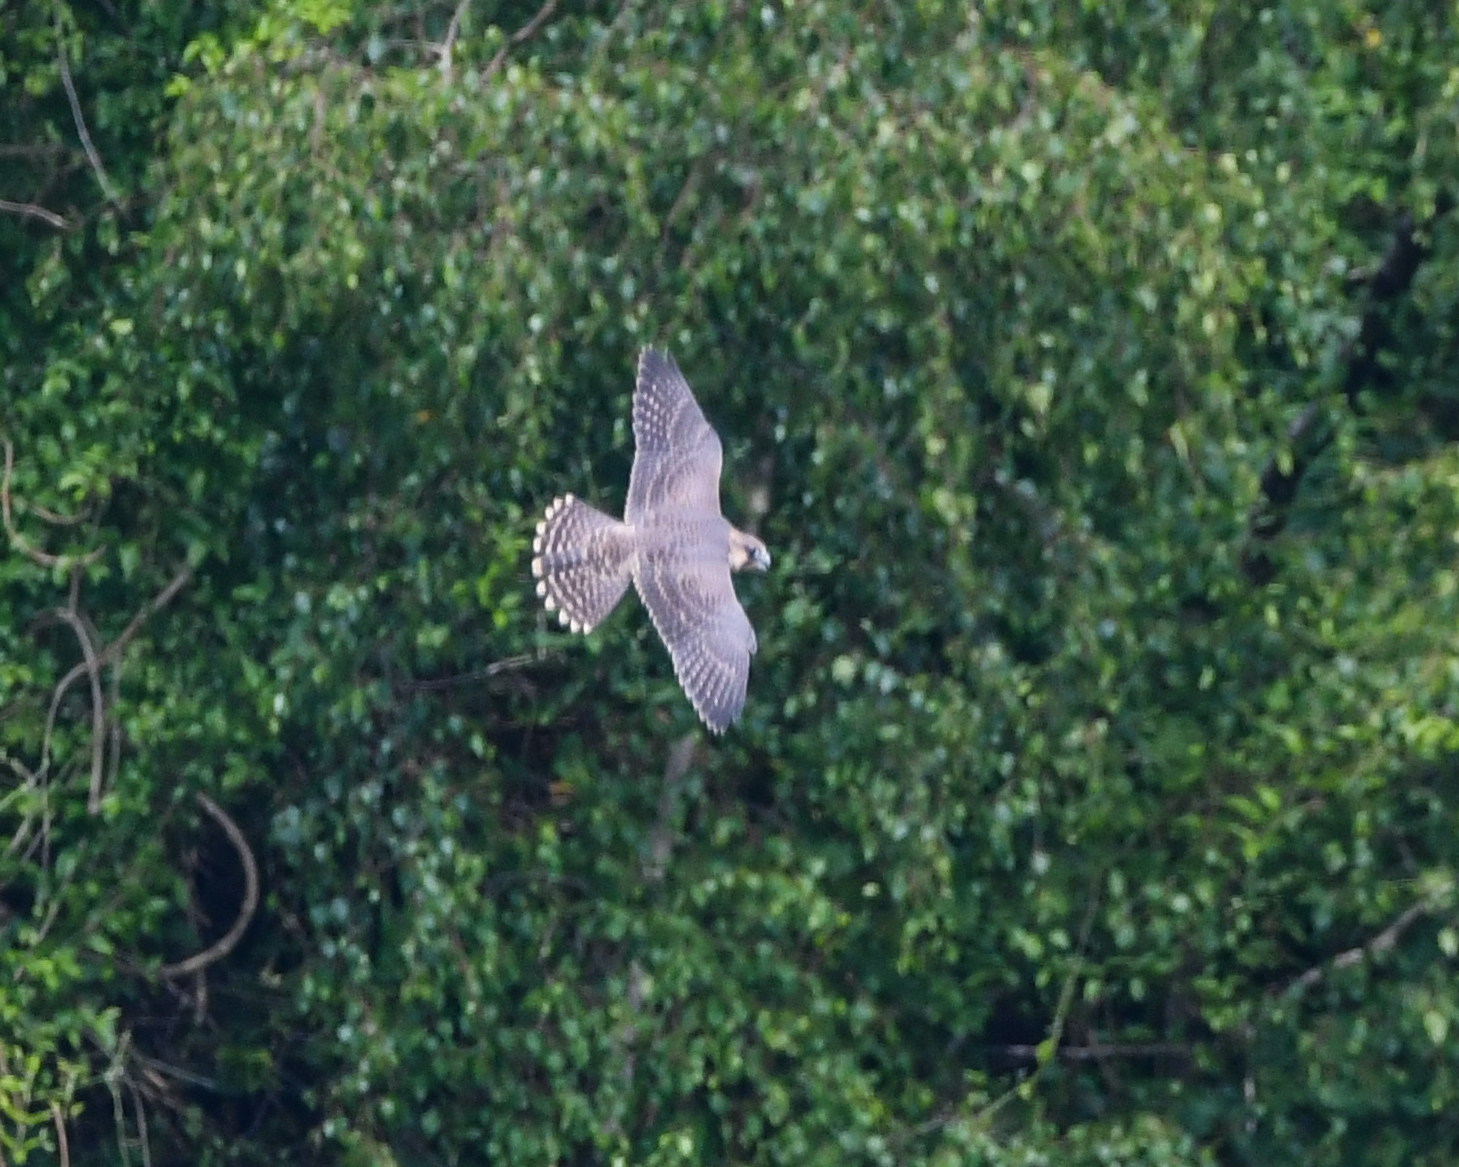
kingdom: Animalia
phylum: Chordata
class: Aves
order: Falconiformes
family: Falconidae
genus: Falco
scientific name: Falco peregrinus
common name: Peregrine falcon
